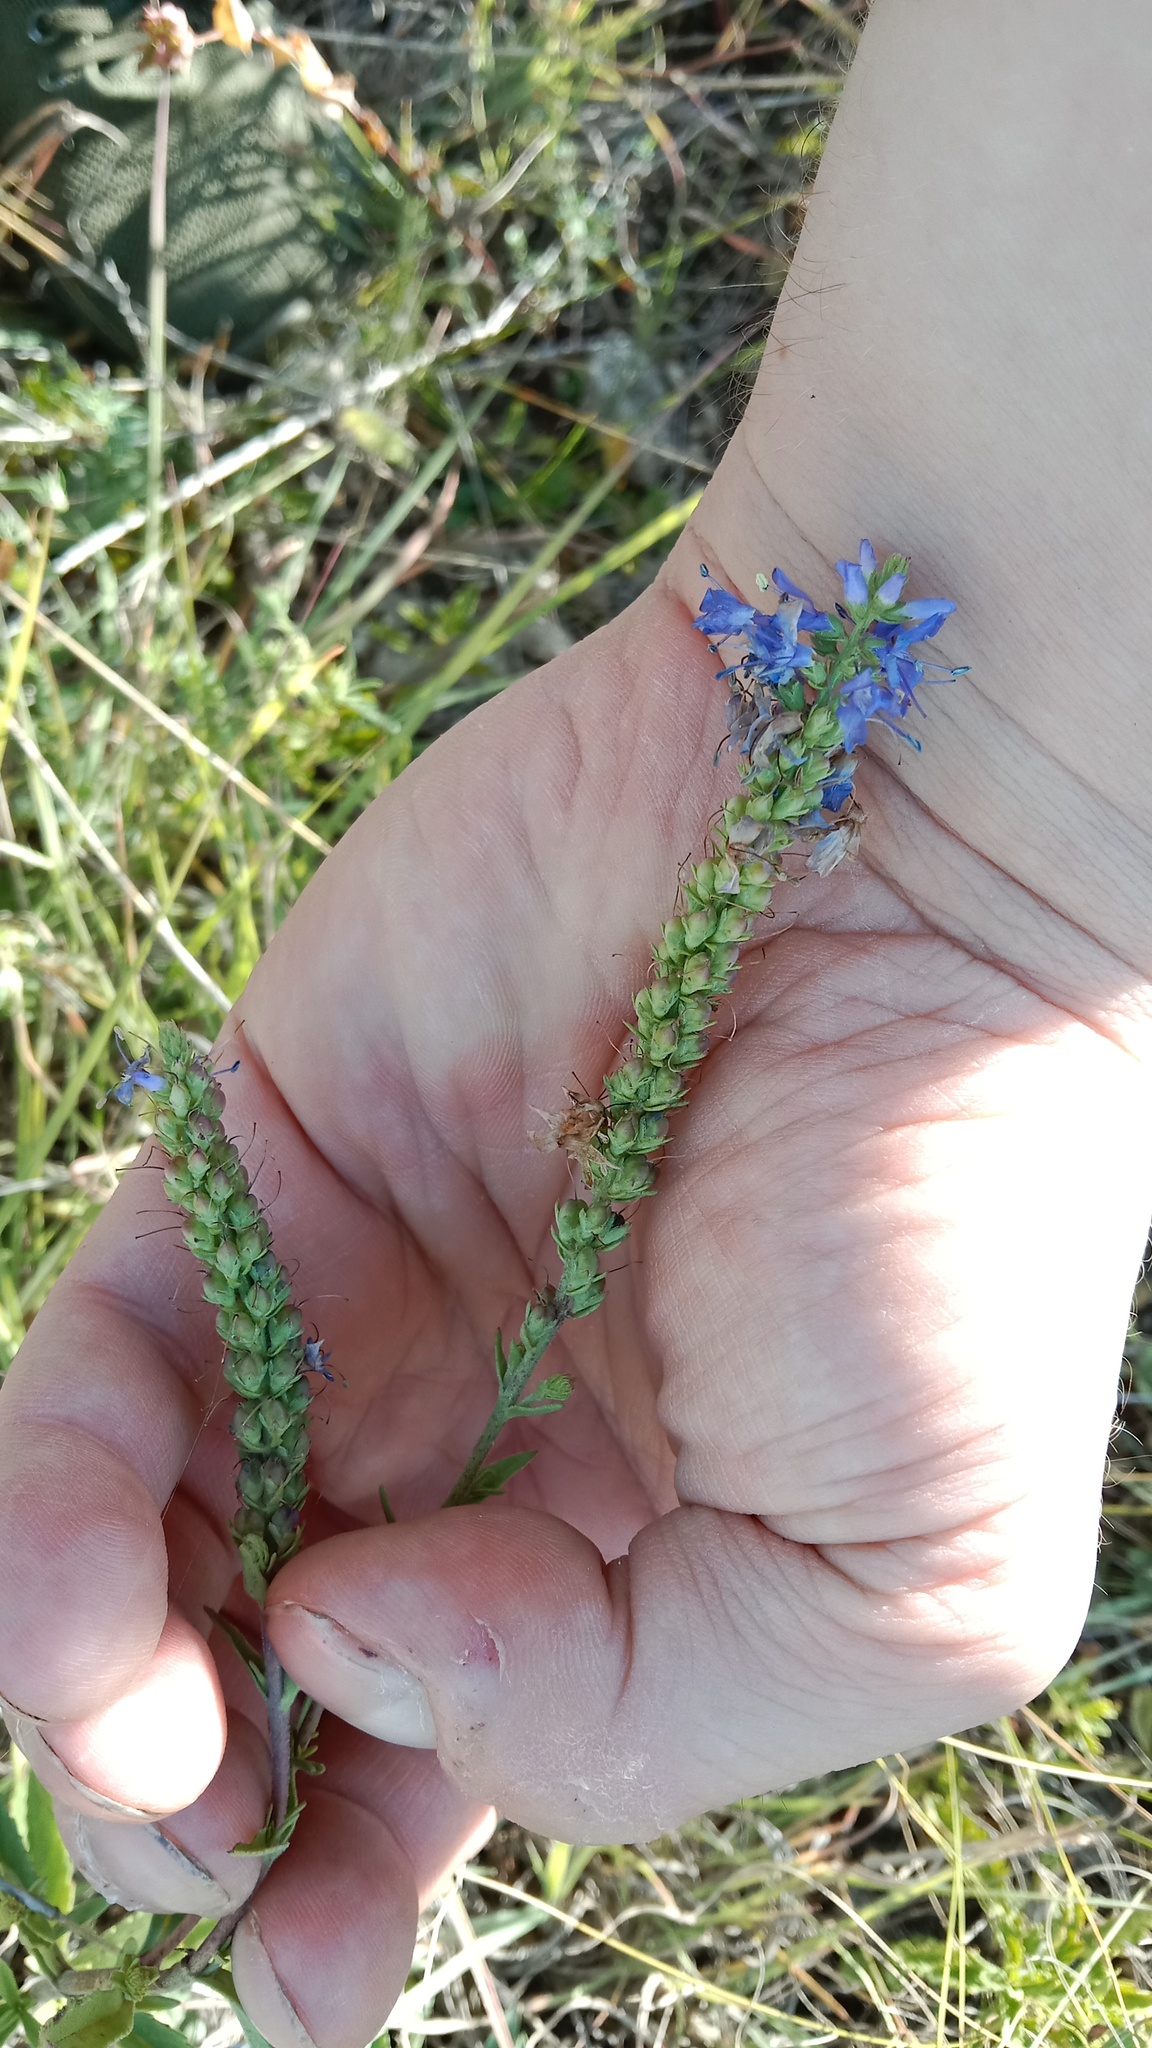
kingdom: Plantae
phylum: Tracheophyta
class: Magnoliopsida
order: Lamiales
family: Plantaginaceae
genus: Veronica
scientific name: Veronica spicata
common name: Spiked speedwell
